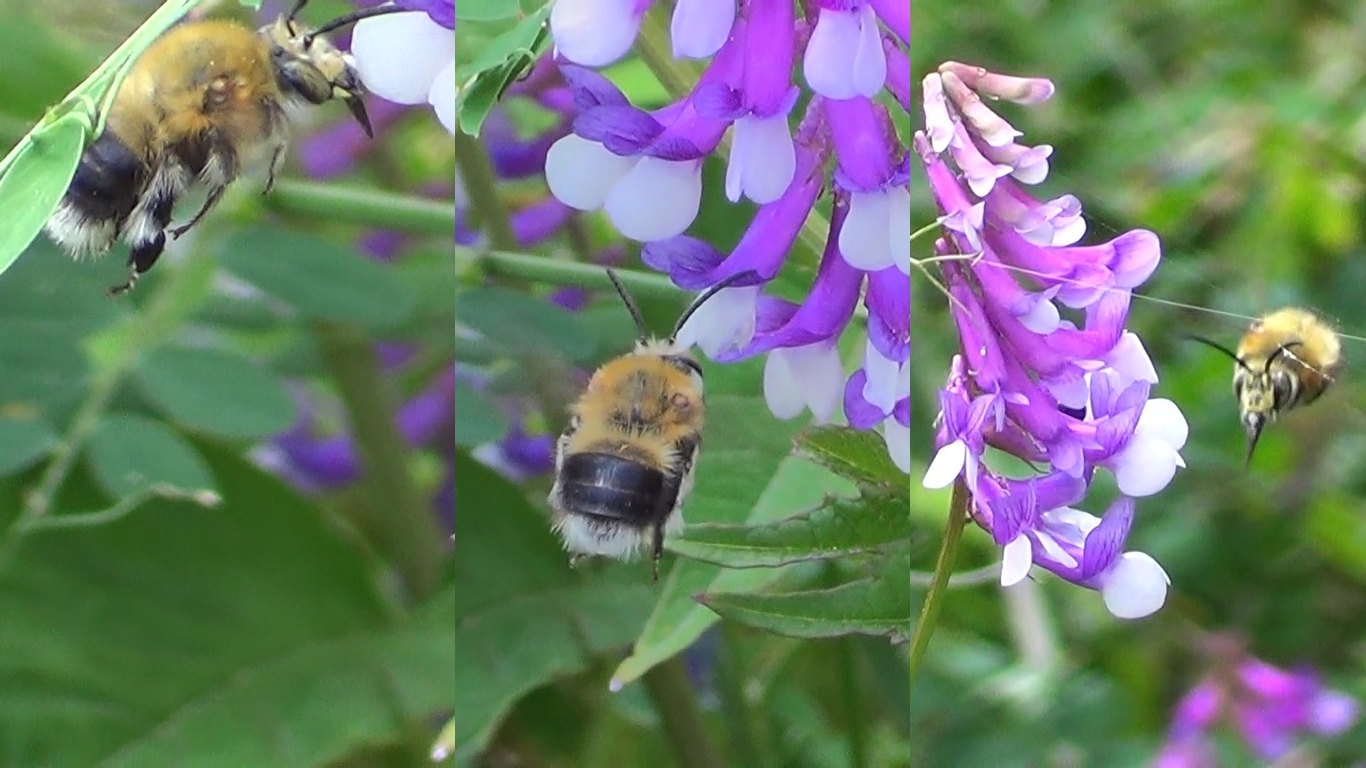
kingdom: Animalia
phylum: Arthropoda
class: Insecta
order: Hymenoptera
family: Apidae
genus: Habropoda
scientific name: Habropoda tarsata
